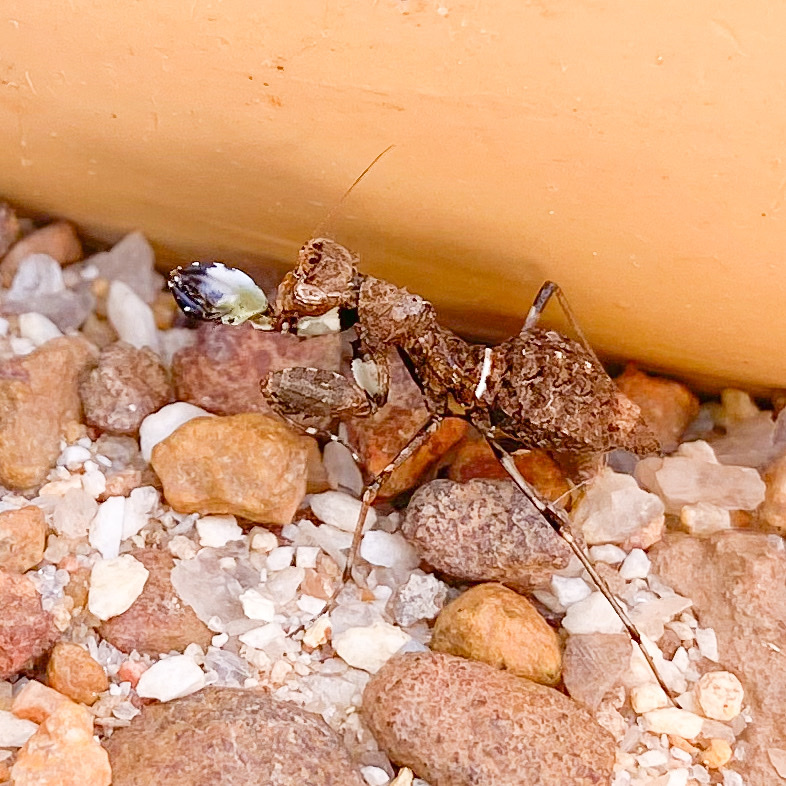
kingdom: Animalia
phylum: Arthropoda
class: Insecta
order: Mantodea
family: Nanomantidae
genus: Paraoxypilus
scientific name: Paraoxypilus kimberleyensis
